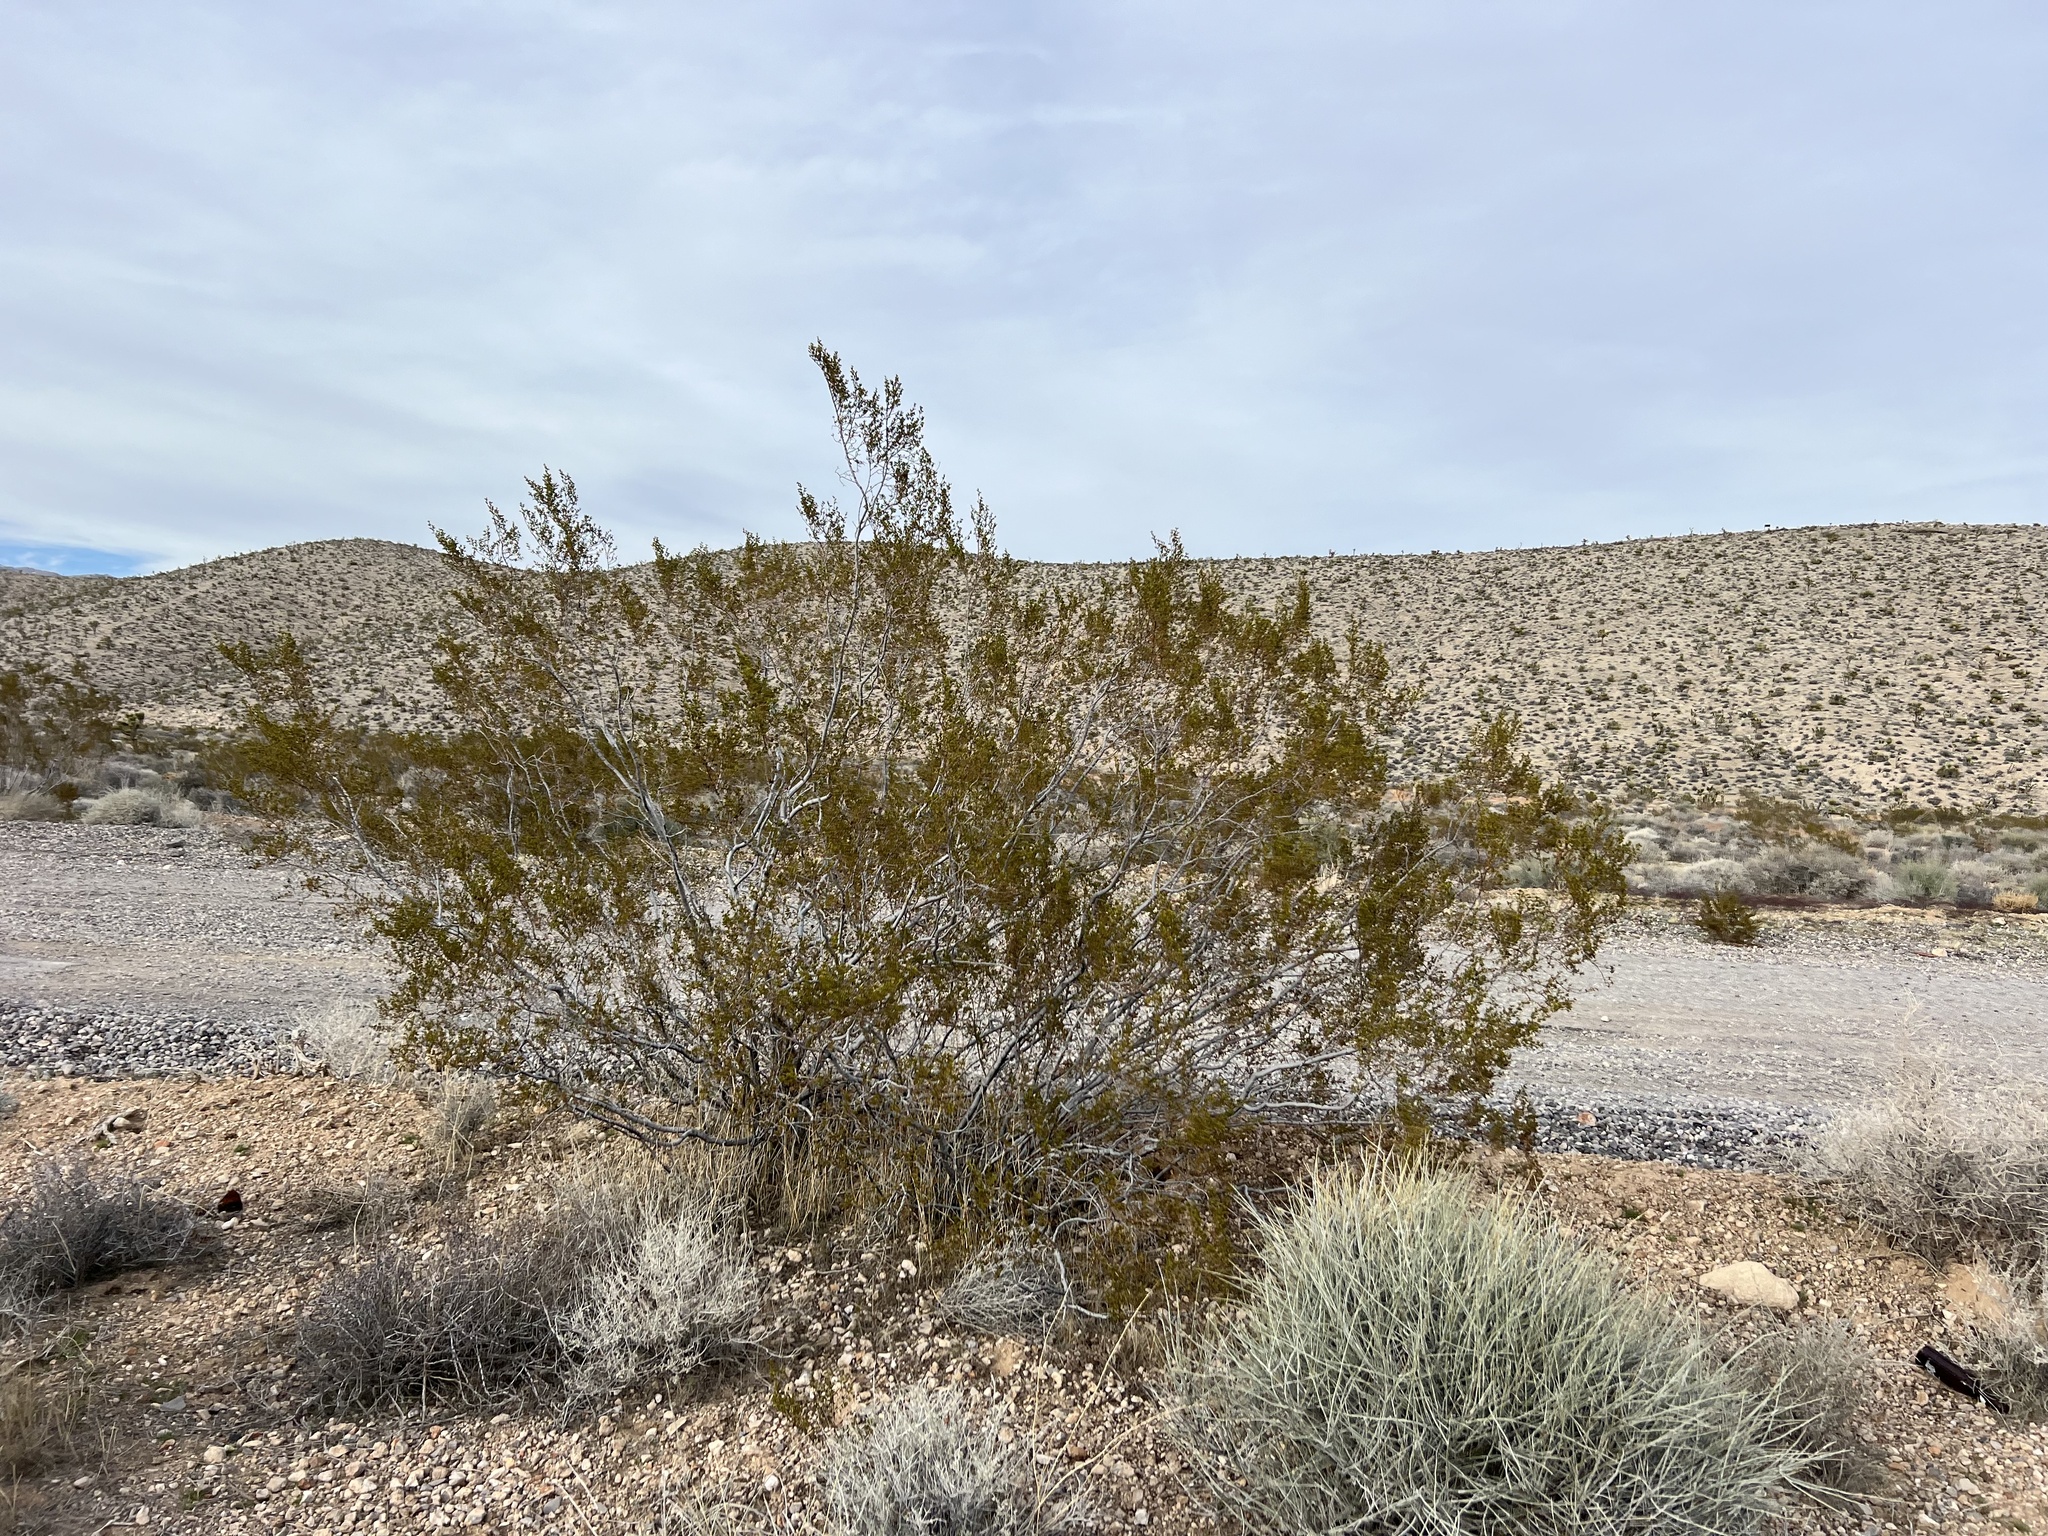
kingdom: Plantae
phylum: Tracheophyta
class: Magnoliopsida
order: Zygophyllales
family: Zygophyllaceae
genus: Larrea
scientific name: Larrea tridentata
